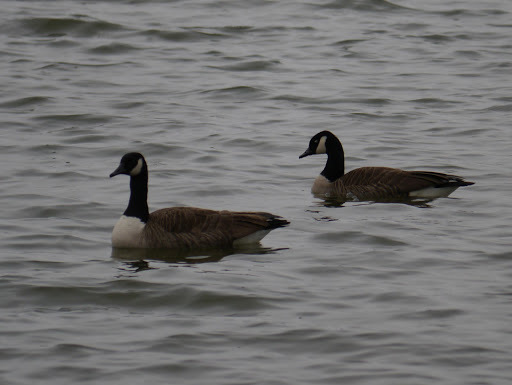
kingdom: Animalia
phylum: Chordata
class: Aves
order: Anseriformes
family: Anatidae
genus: Branta
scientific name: Branta canadensis
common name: Canada goose
